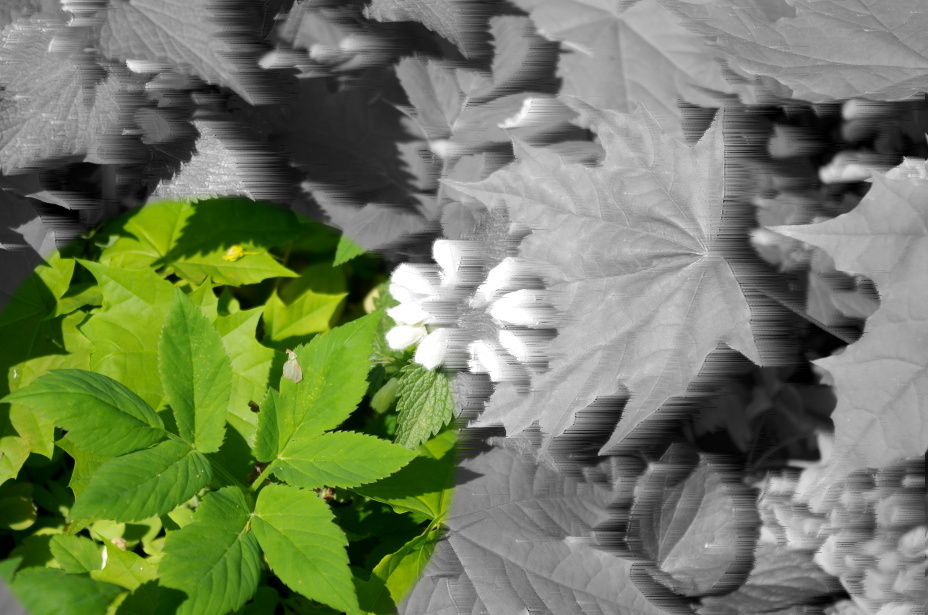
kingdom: Plantae
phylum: Tracheophyta
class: Magnoliopsida
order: Apiales
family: Apiaceae
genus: Aegopodium
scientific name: Aegopodium podagraria
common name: Ground-elder
